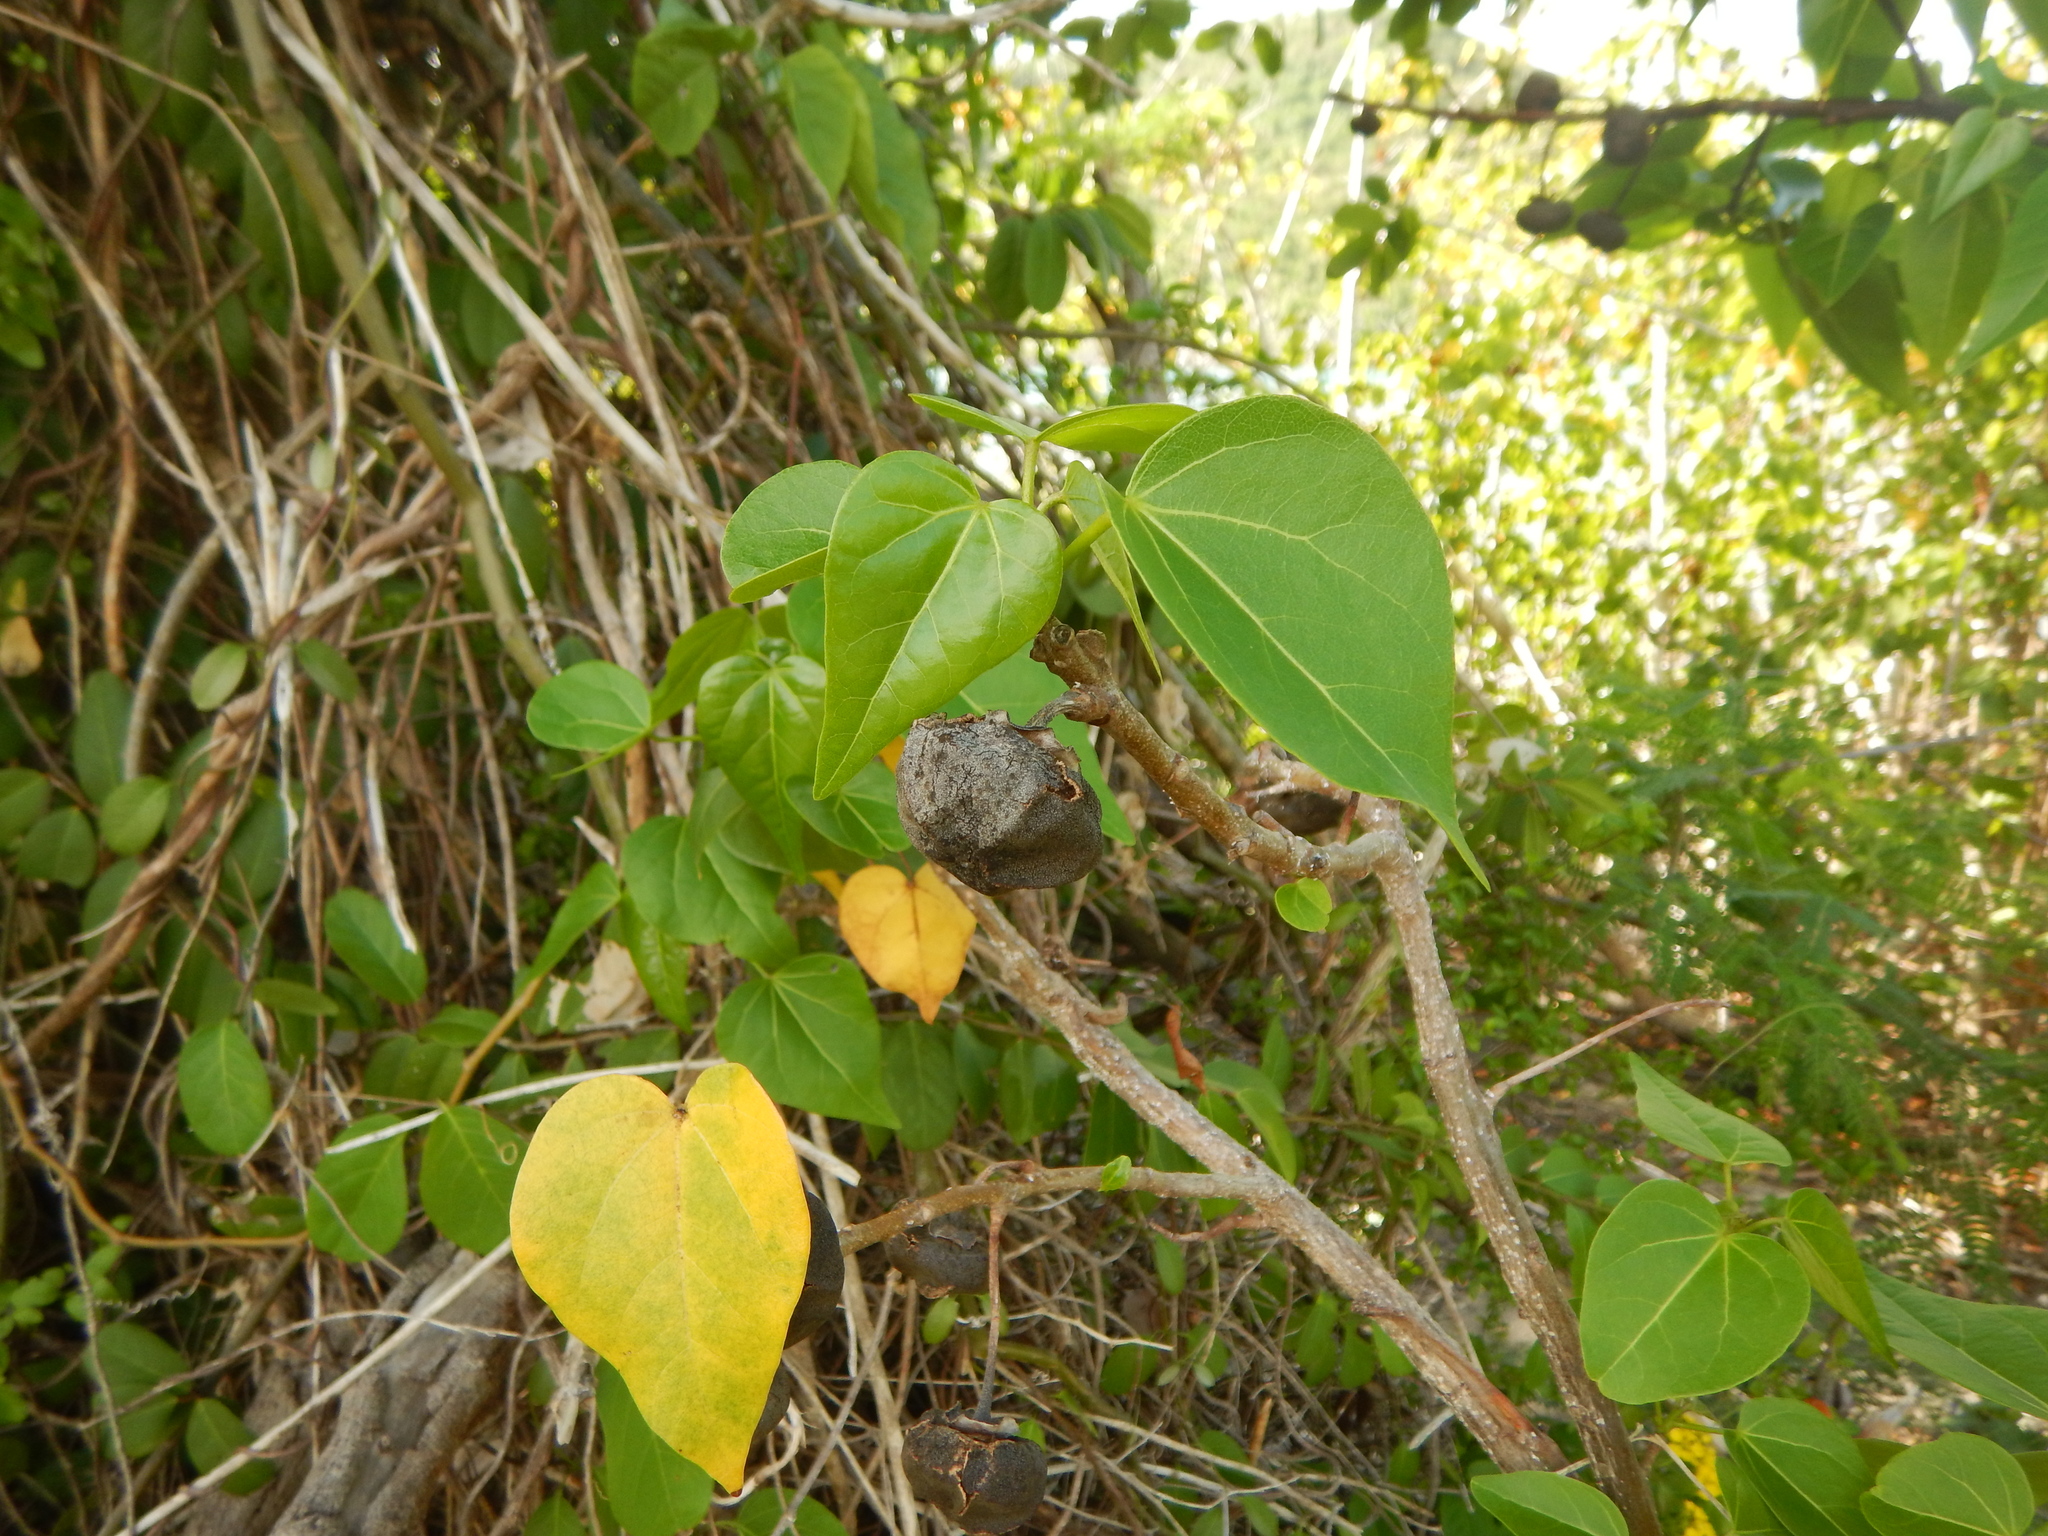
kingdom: Plantae
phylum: Tracheophyta
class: Magnoliopsida
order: Malvales
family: Malvaceae
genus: Thespesia
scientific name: Thespesia populnea
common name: Seaside mahoe
